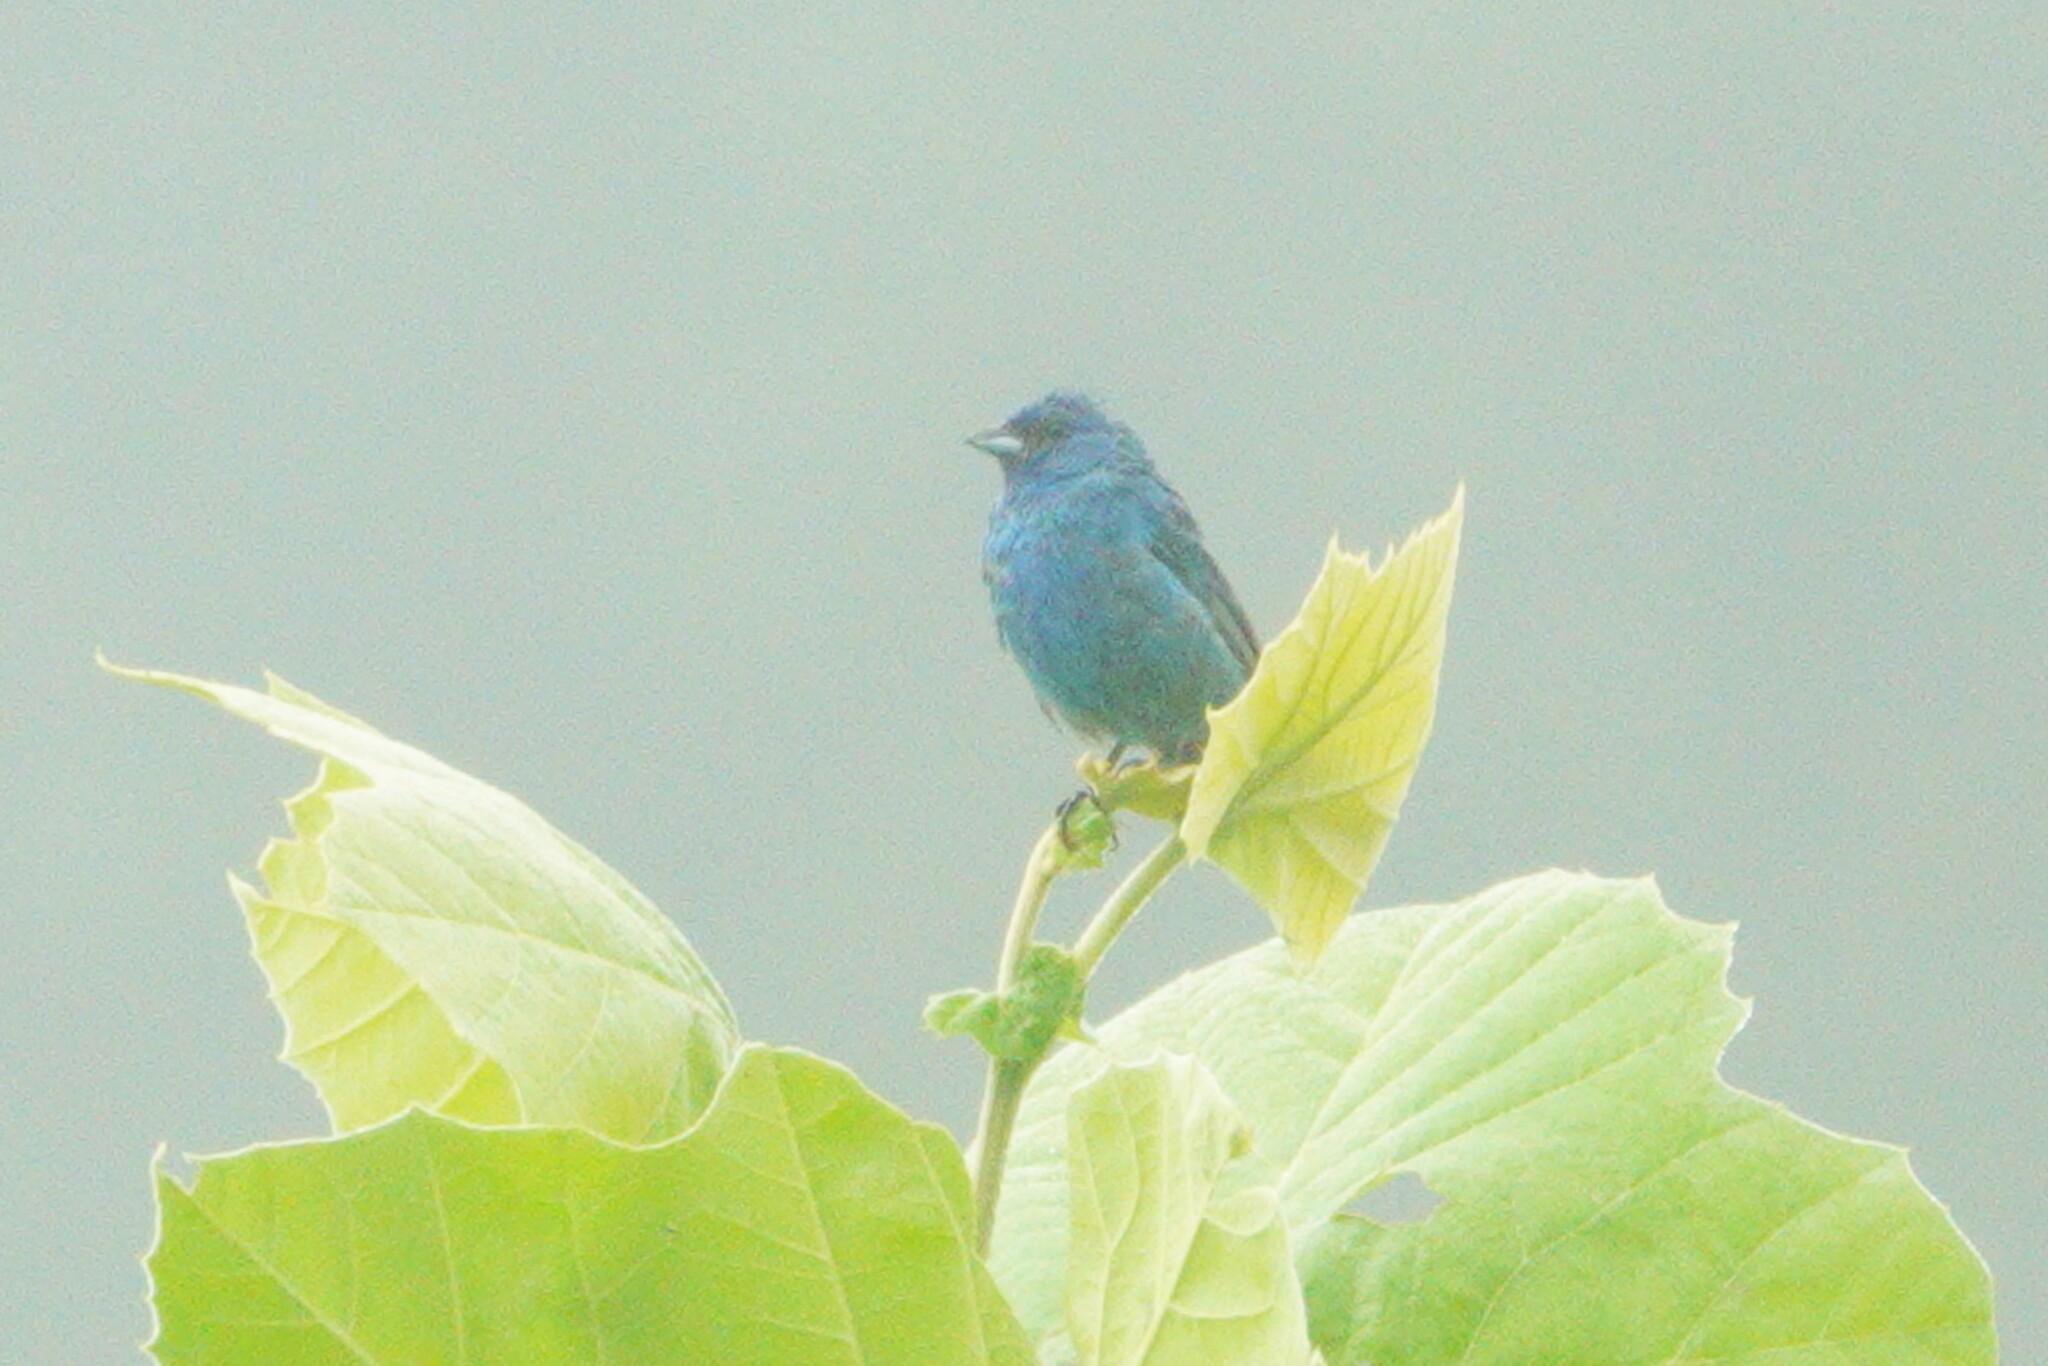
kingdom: Animalia
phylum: Chordata
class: Aves
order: Passeriformes
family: Cardinalidae
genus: Passerina
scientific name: Passerina cyanea
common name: Indigo bunting
